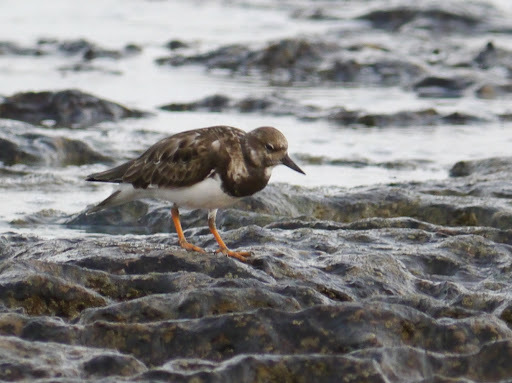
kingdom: Animalia
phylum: Chordata
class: Aves
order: Charadriiformes
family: Scolopacidae
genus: Arenaria
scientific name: Arenaria interpres
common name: Ruddy turnstone
